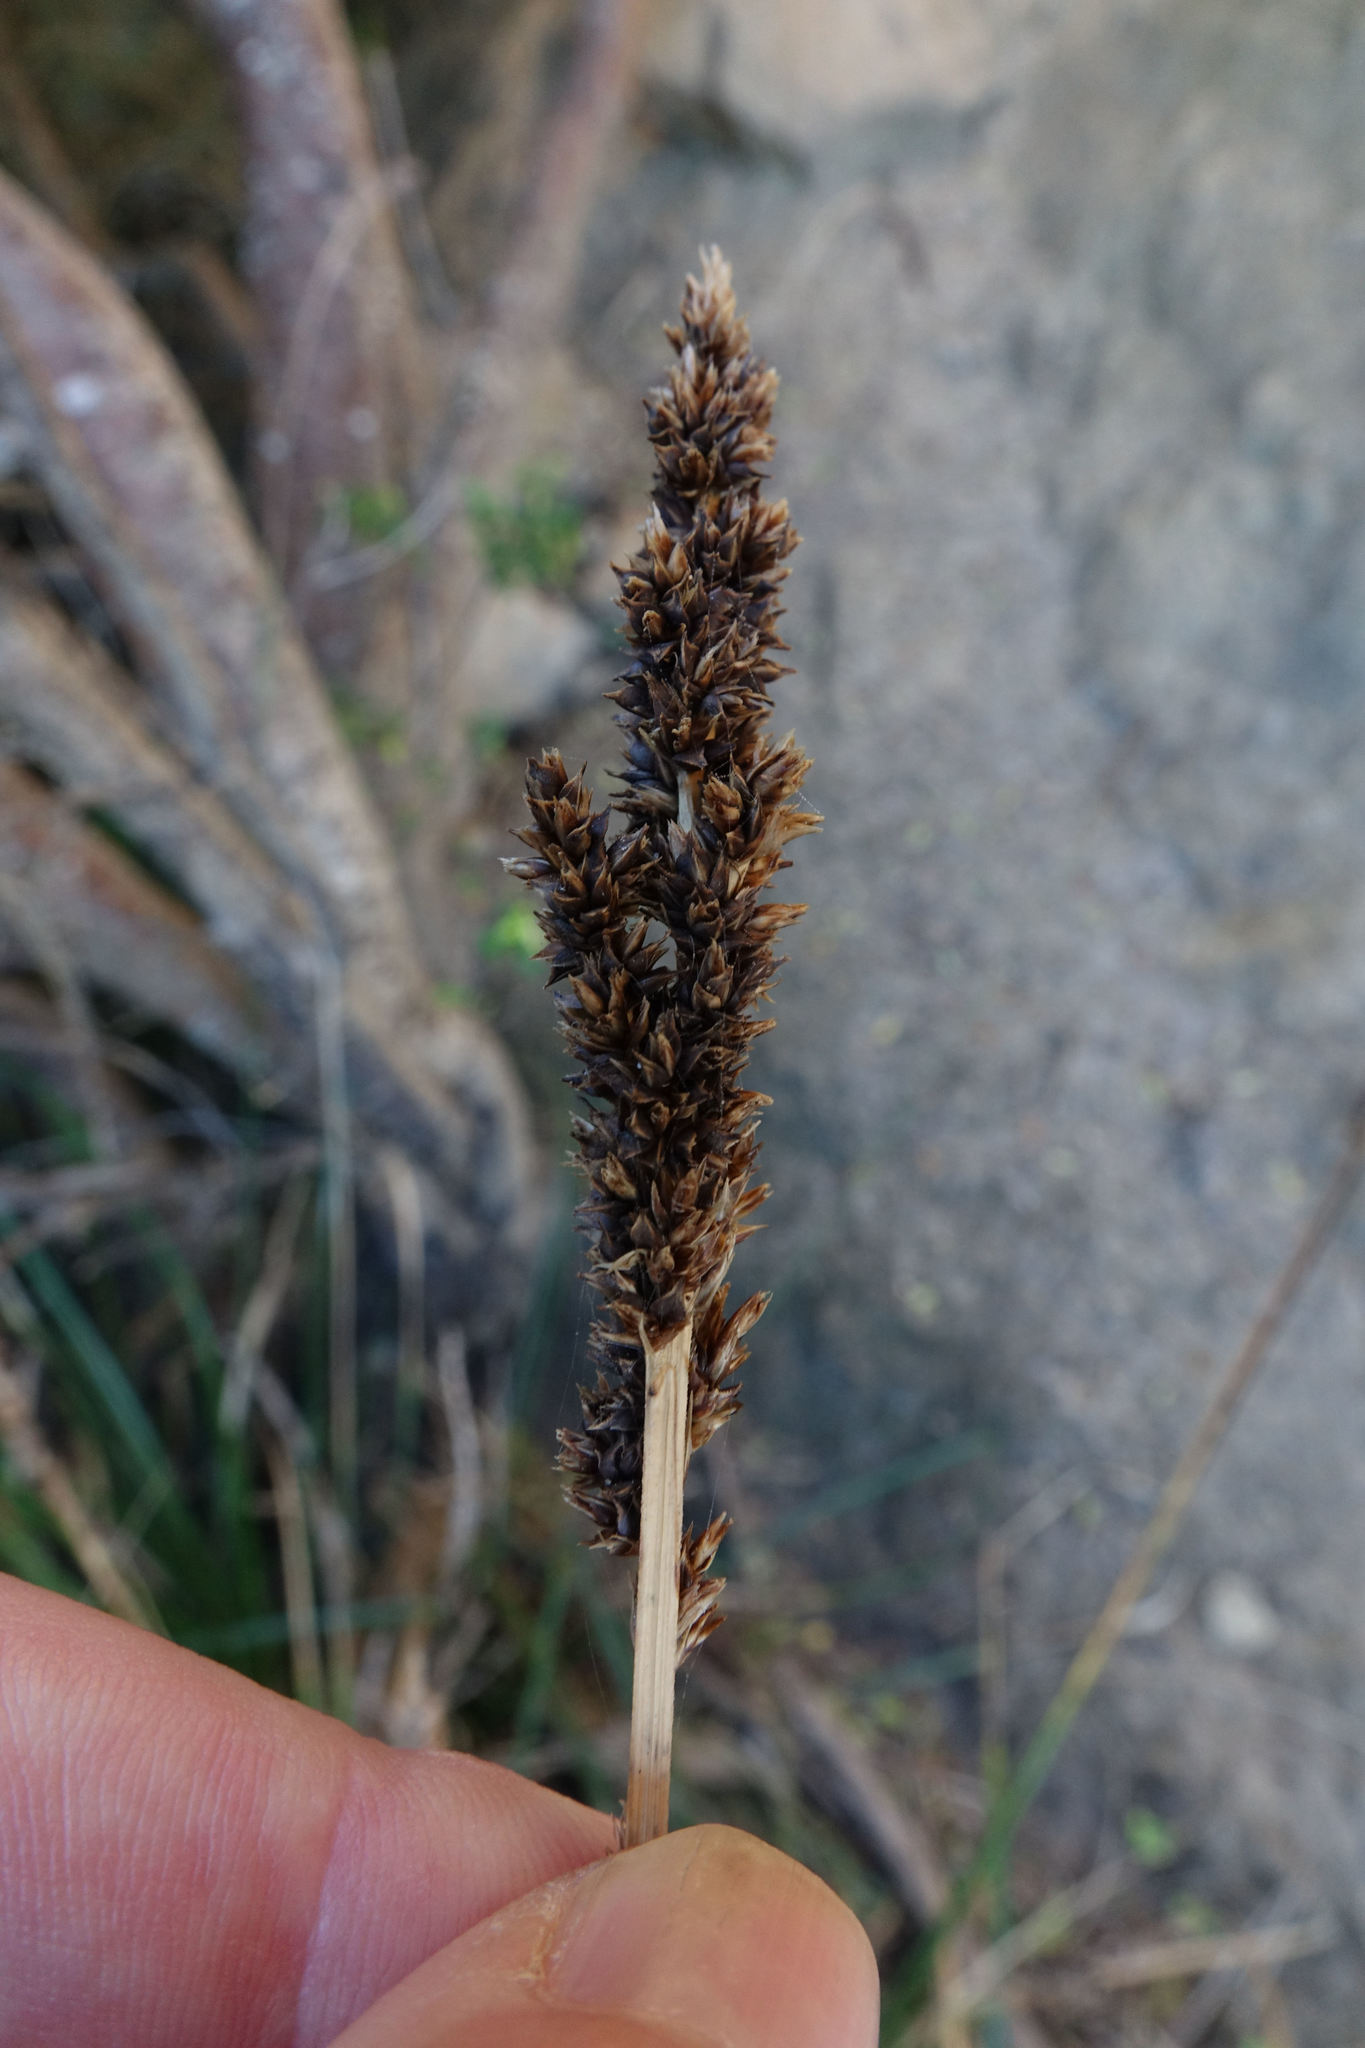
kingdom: Plantae
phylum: Tracheophyta
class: Liliopsida
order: Poales
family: Cyperaceae
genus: Carex
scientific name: Carex appressa
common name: Tussock sedge
